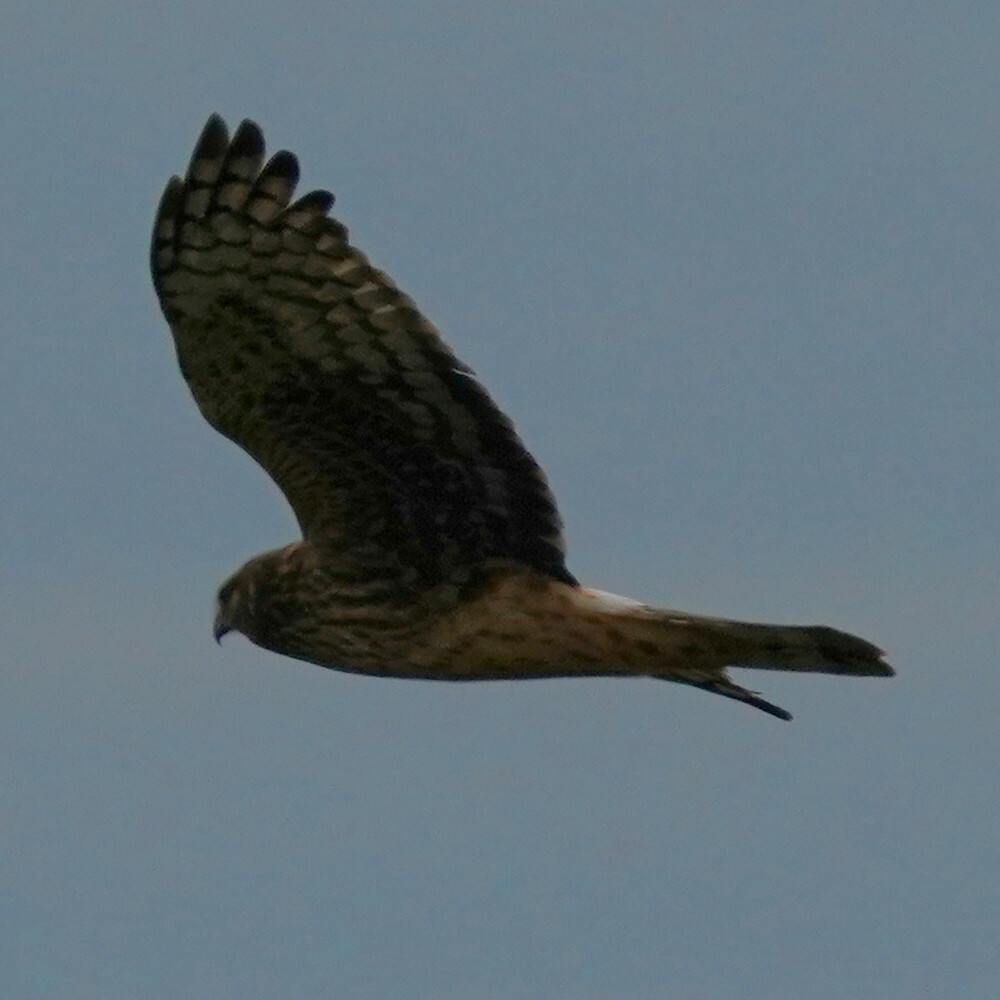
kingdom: Animalia
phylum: Chordata
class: Aves
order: Accipitriformes
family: Accipitridae
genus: Circus
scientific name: Circus cyaneus
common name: Hen harrier
